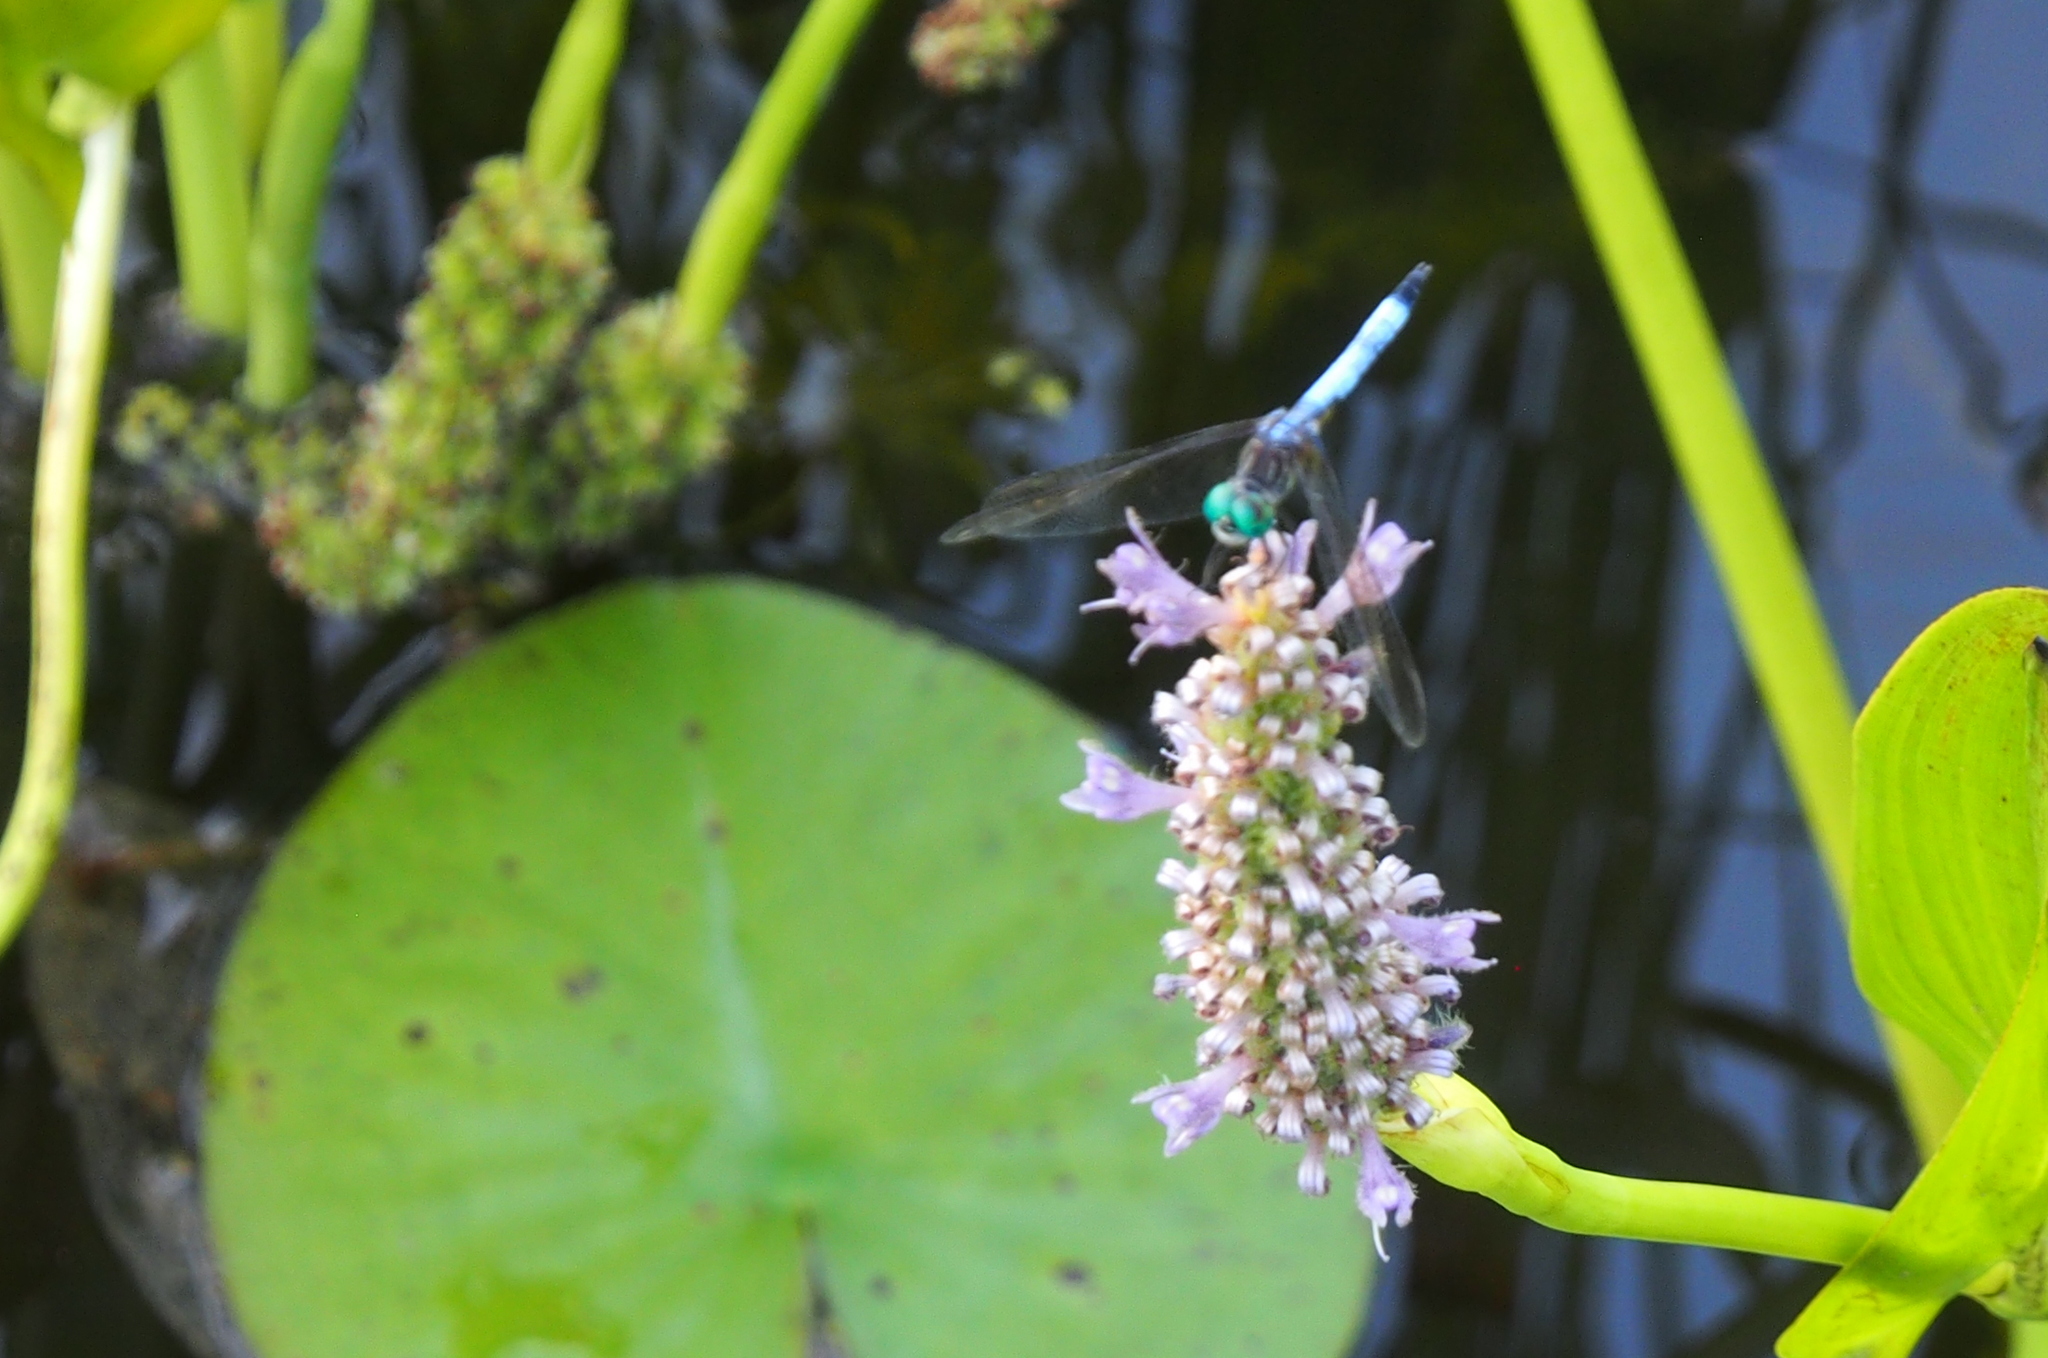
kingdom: Animalia
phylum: Arthropoda
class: Insecta
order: Odonata
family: Libellulidae
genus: Pachydiplax
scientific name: Pachydiplax longipennis
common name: Blue dasher
